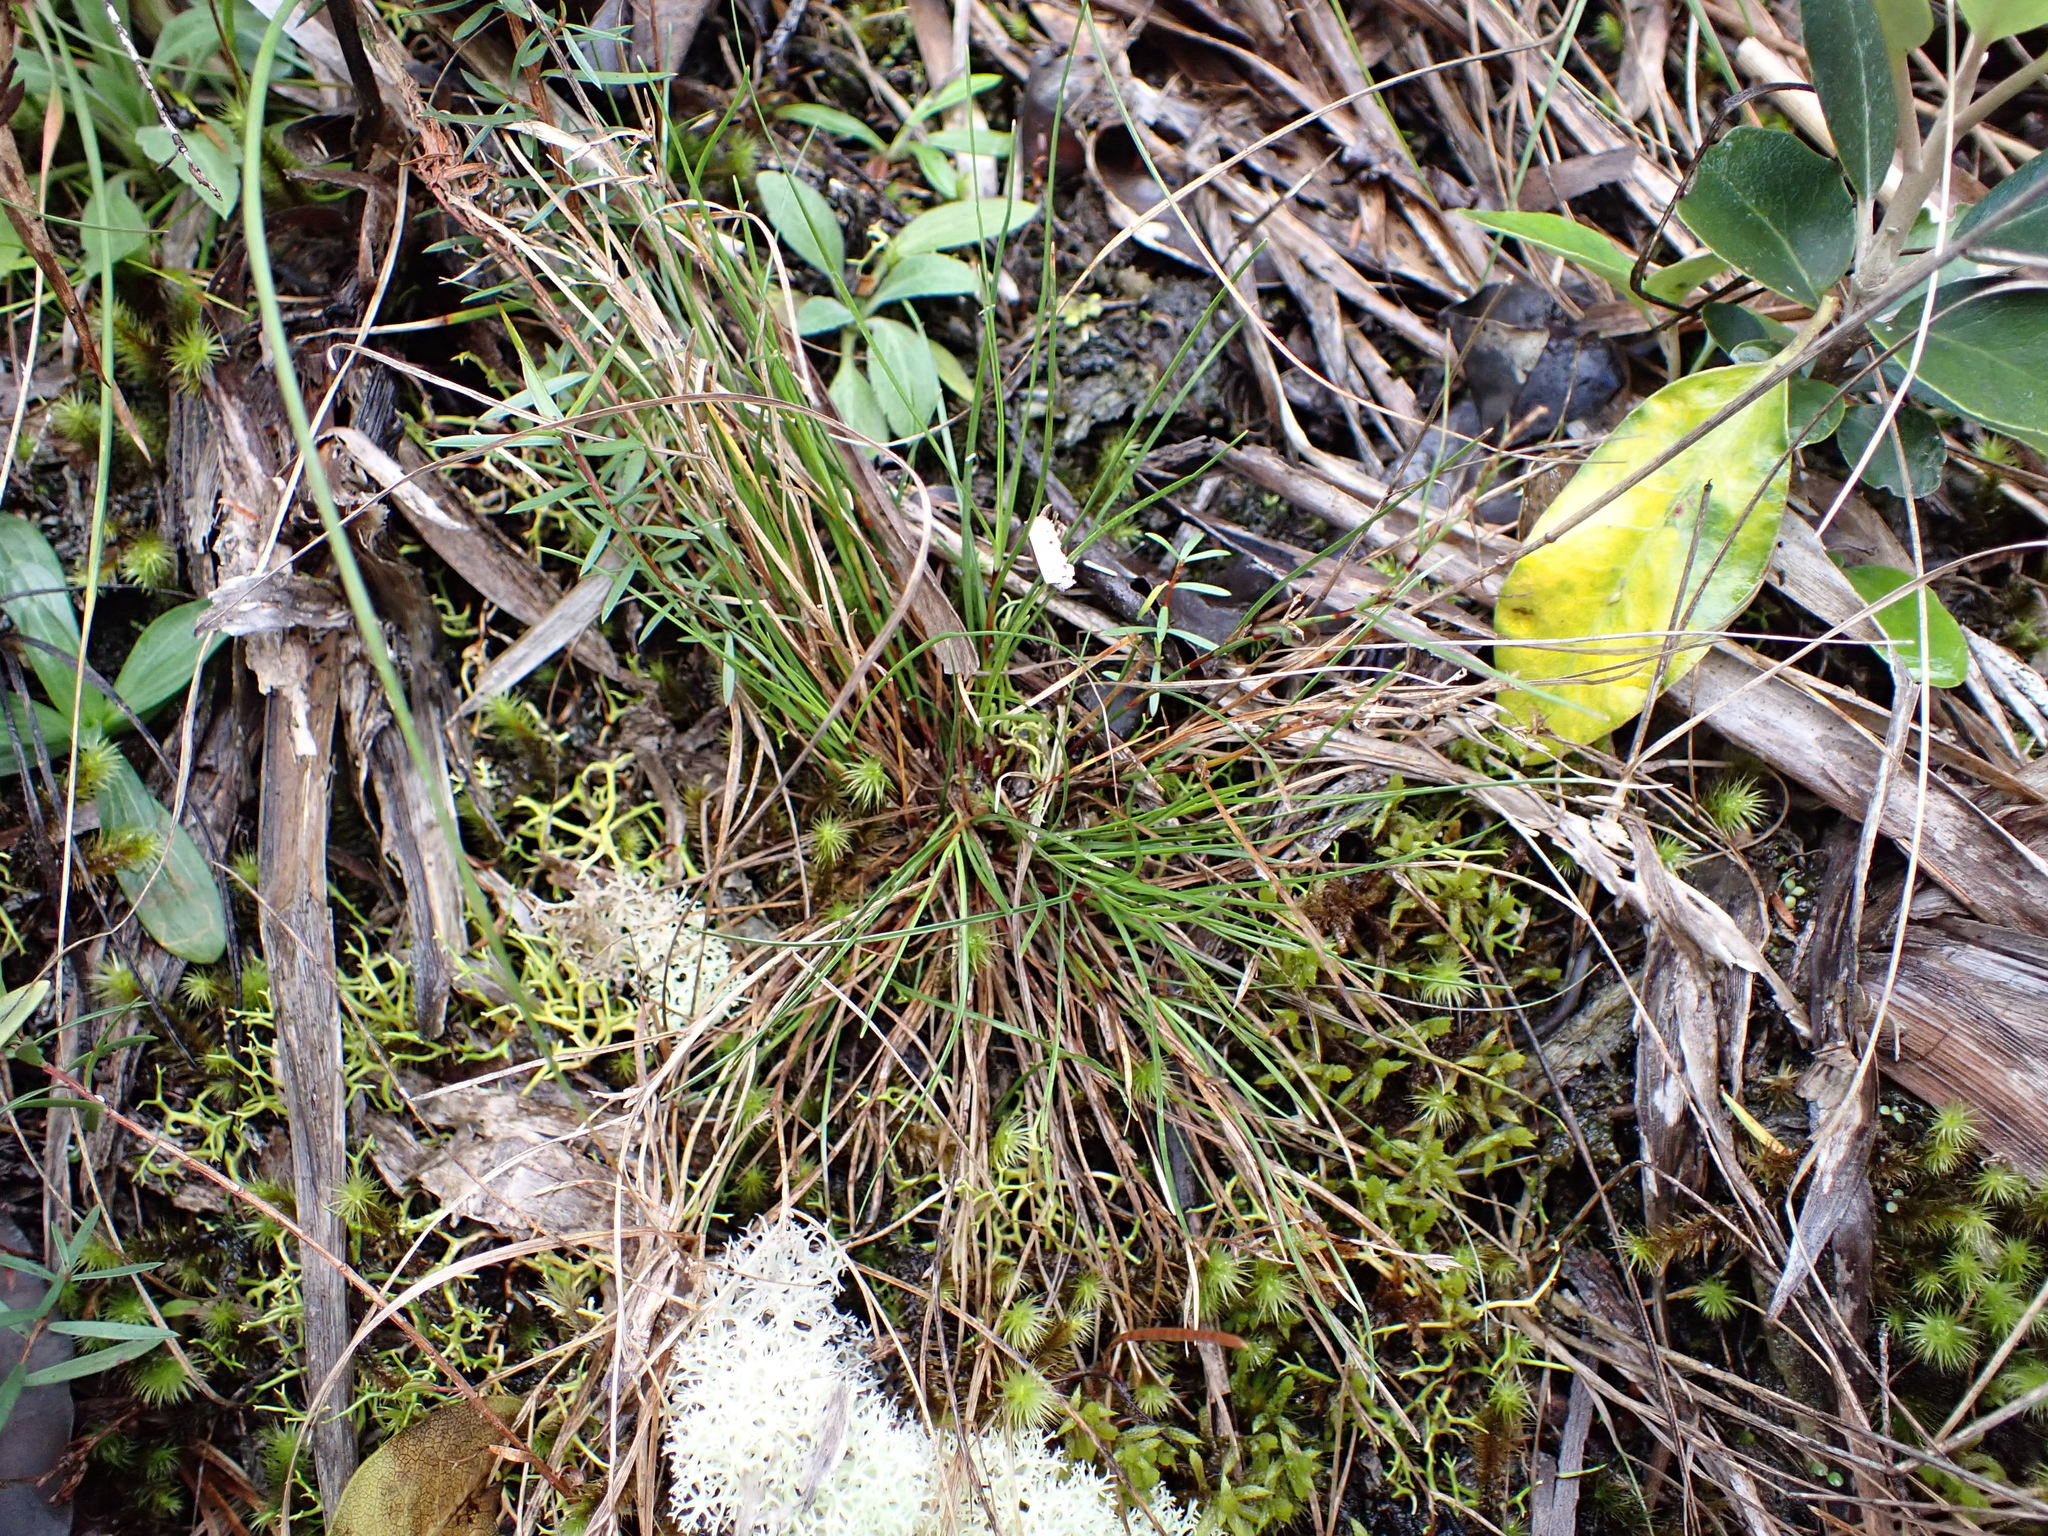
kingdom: Plantae
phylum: Tracheophyta
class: Liliopsida
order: Poales
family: Cyperaceae
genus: Schoenus
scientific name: Schoenus apogon
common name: Smooth bogrush
